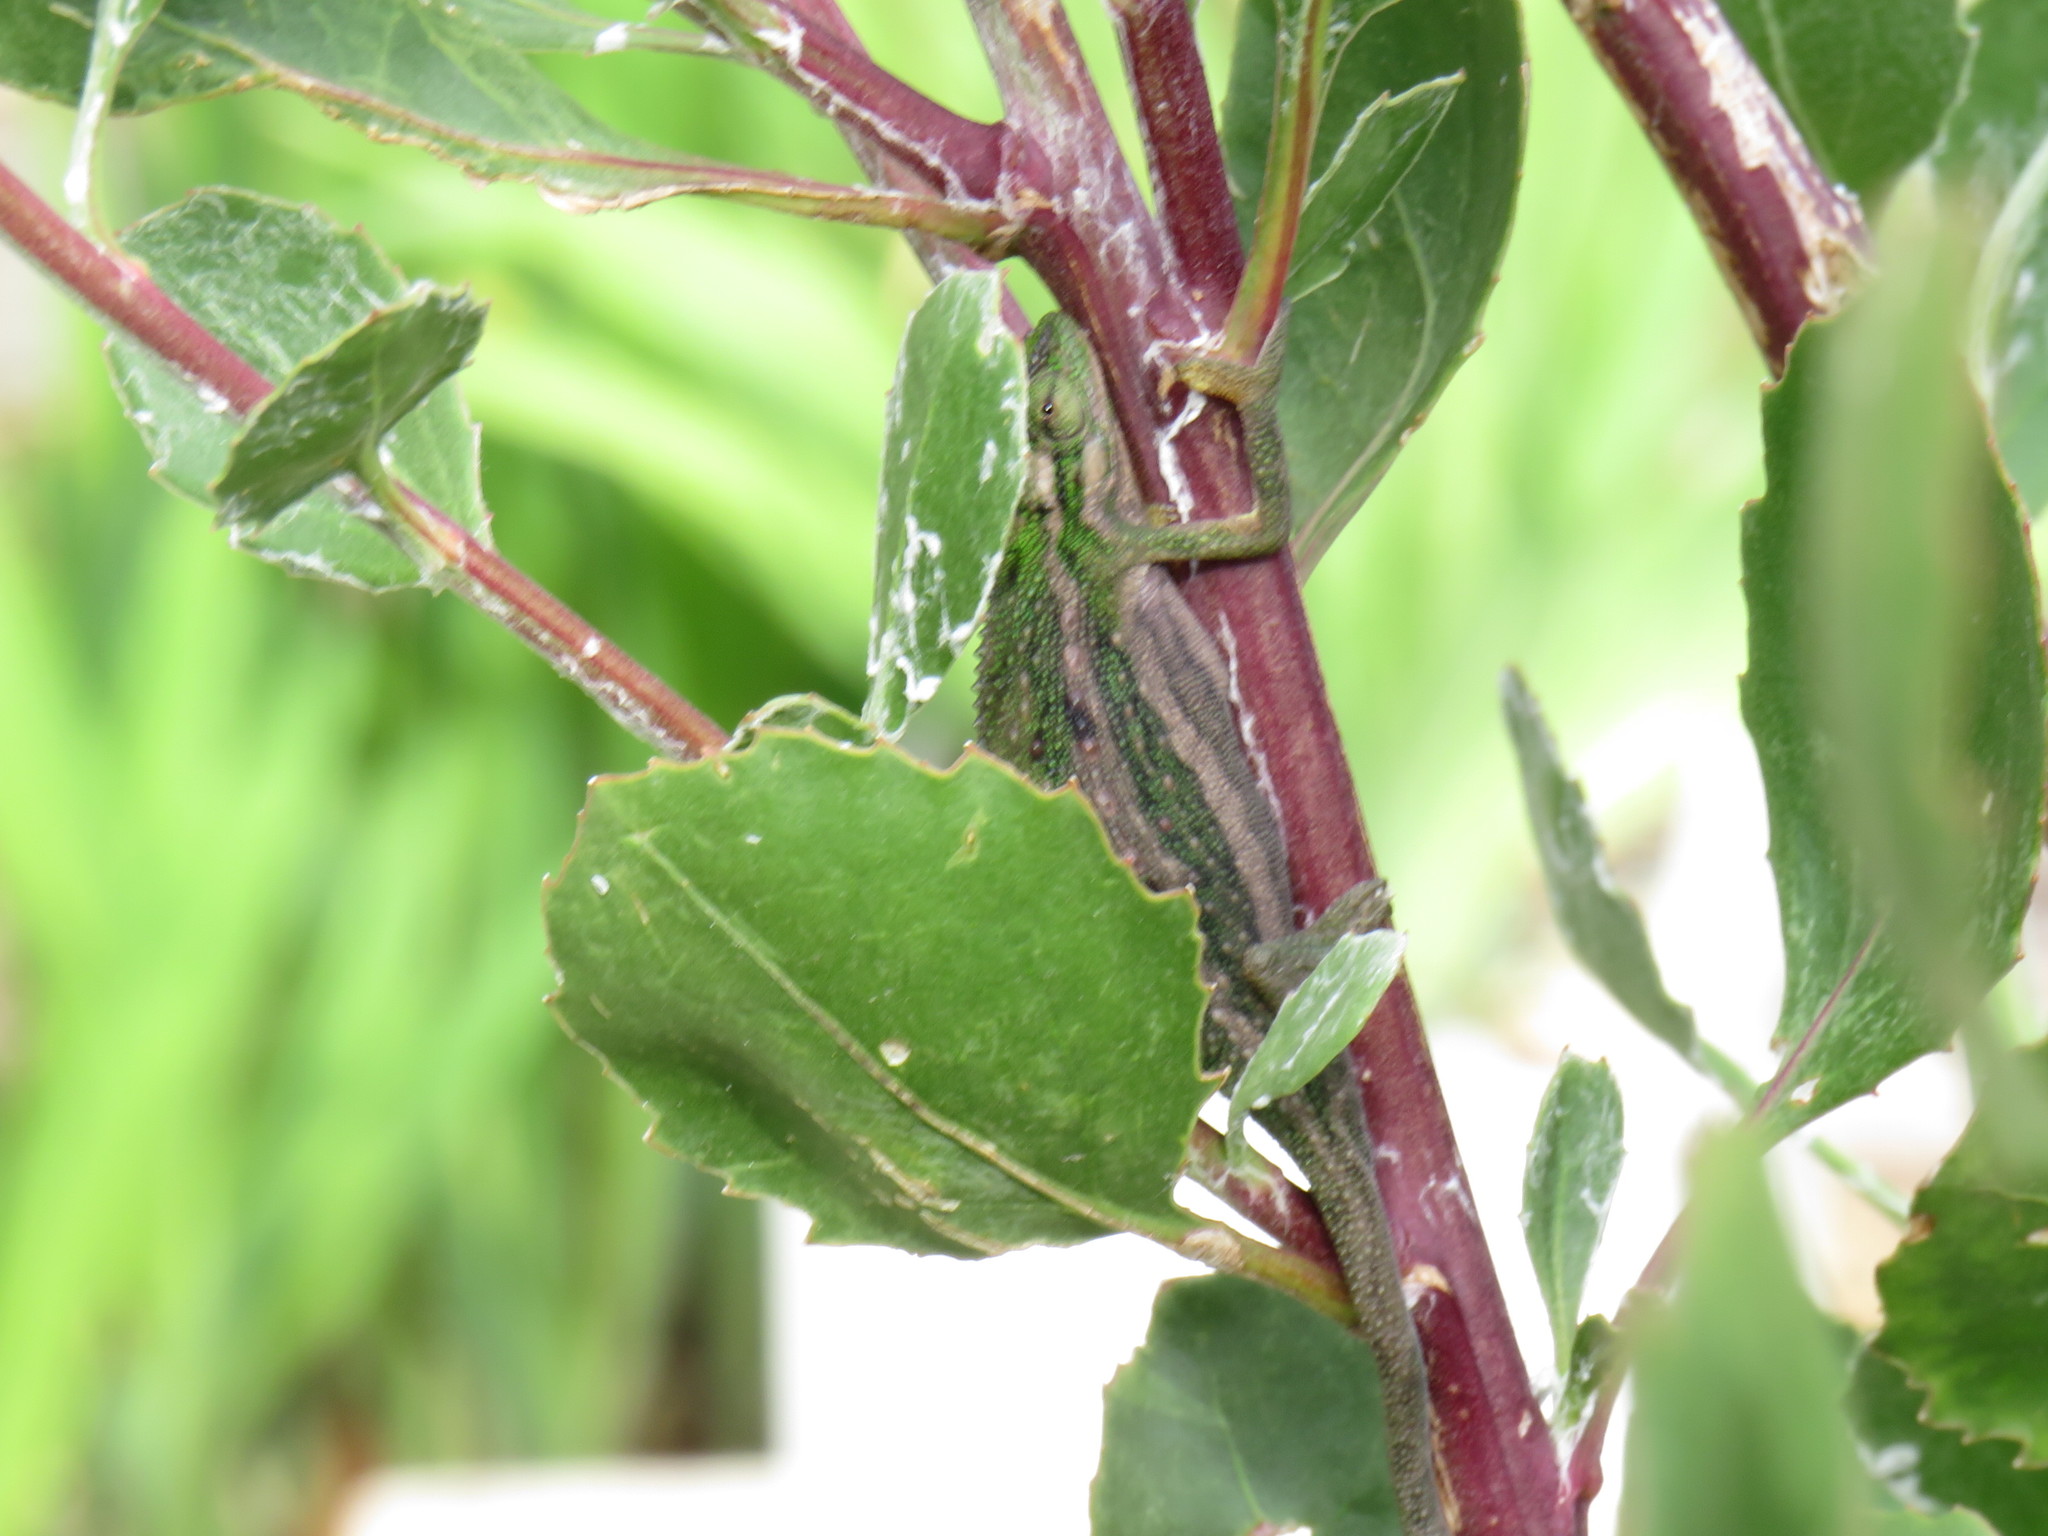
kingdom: Animalia
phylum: Chordata
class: Squamata
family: Chamaeleonidae
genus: Bradypodion
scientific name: Bradypodion pumilum
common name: Cape dwarf chameleon
